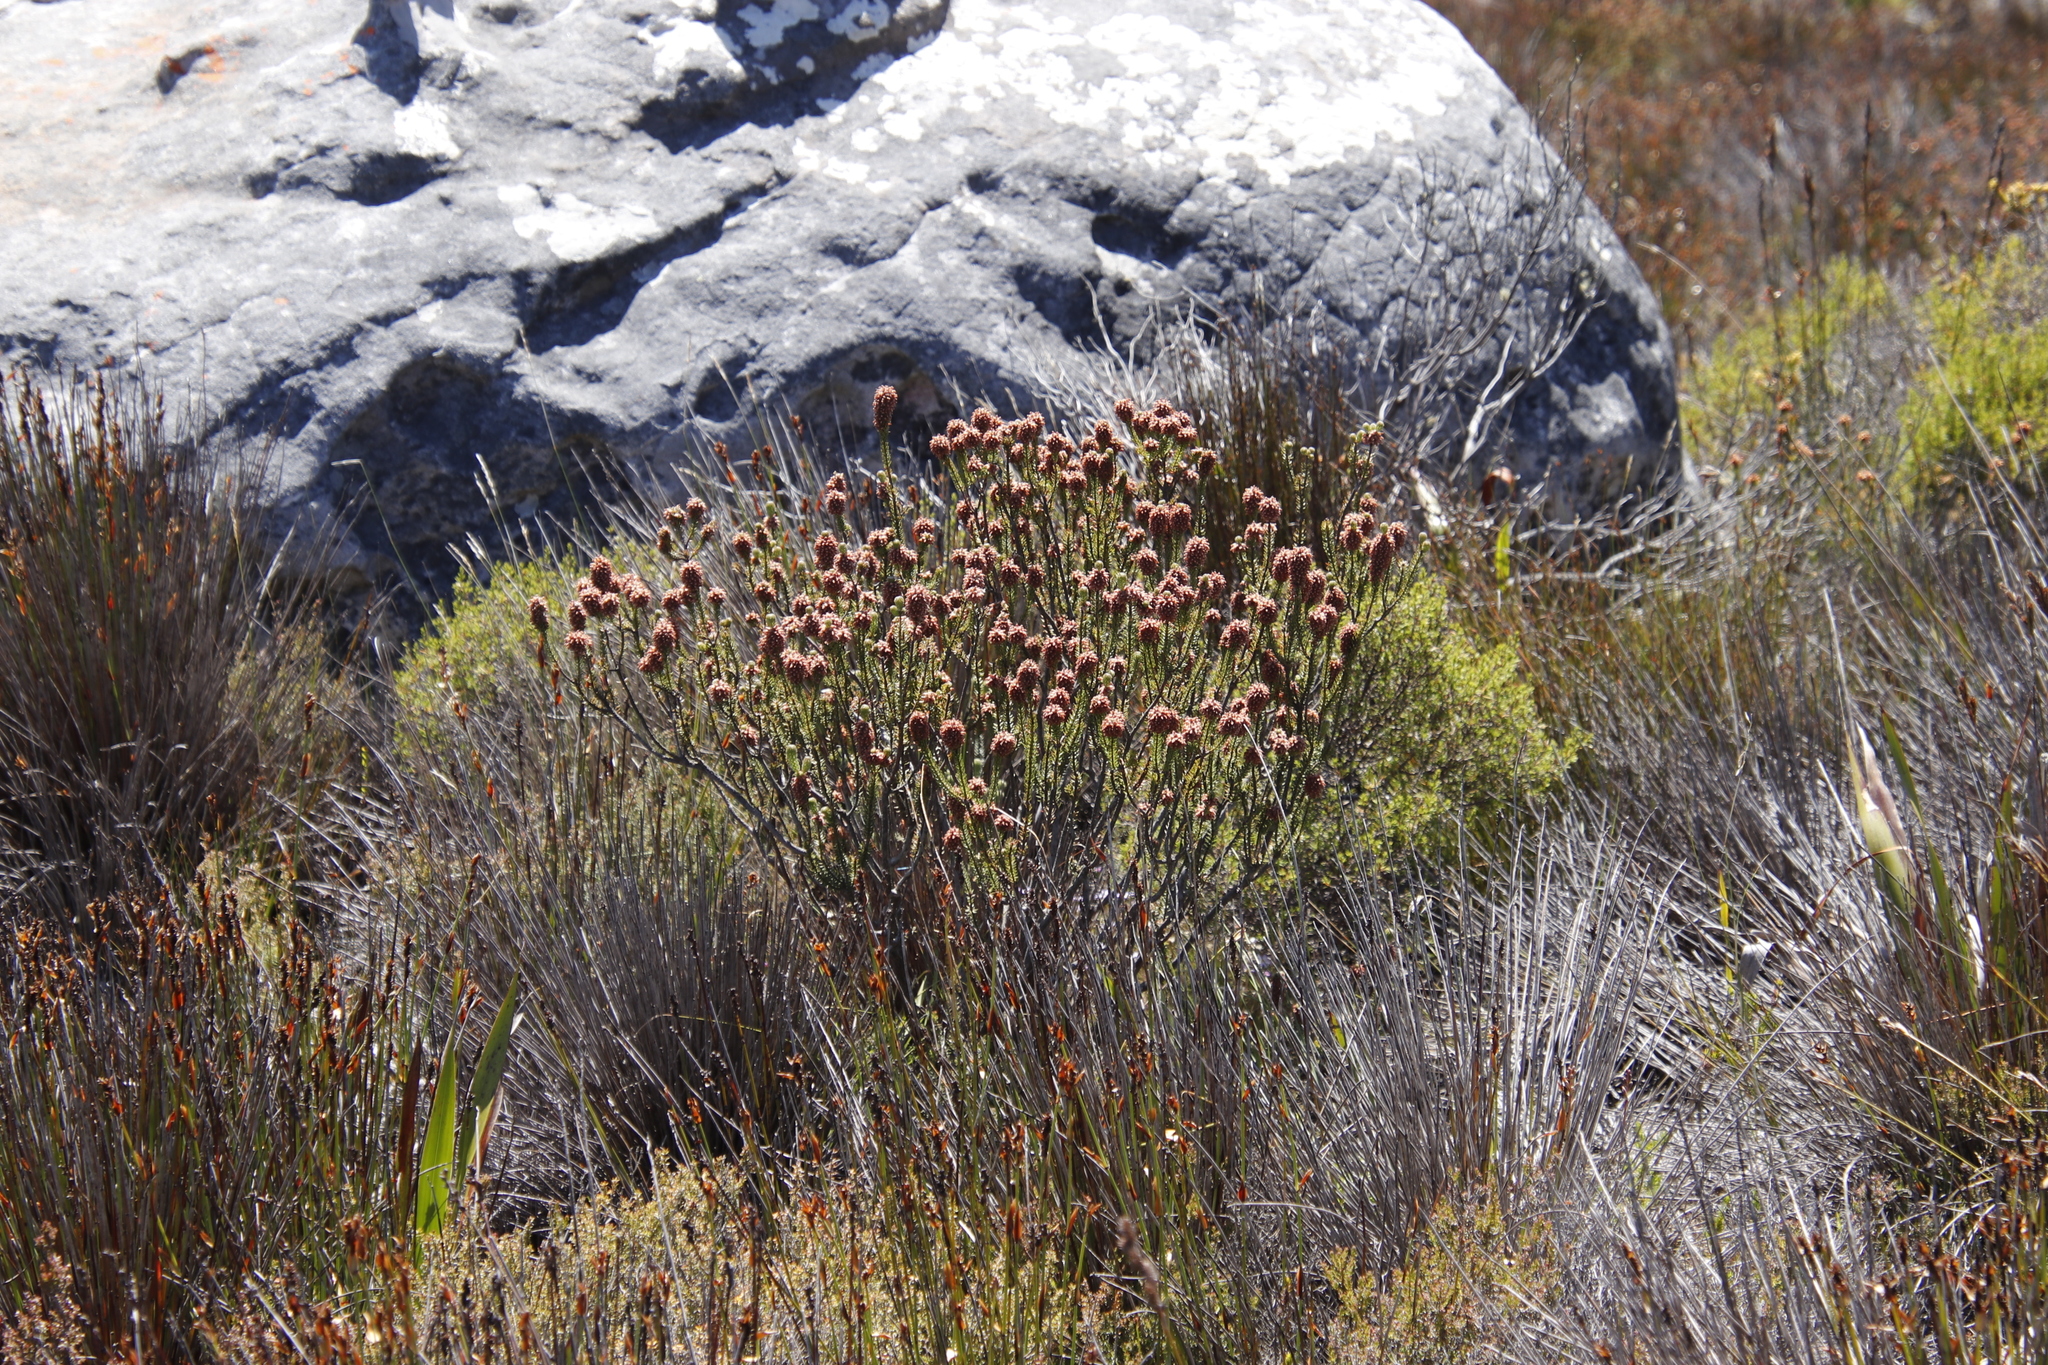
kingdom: Plantae
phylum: Tracheophyta
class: Magnoliopsida
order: Ericales
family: Ericaceae
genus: Erica
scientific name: Erica empetrina
